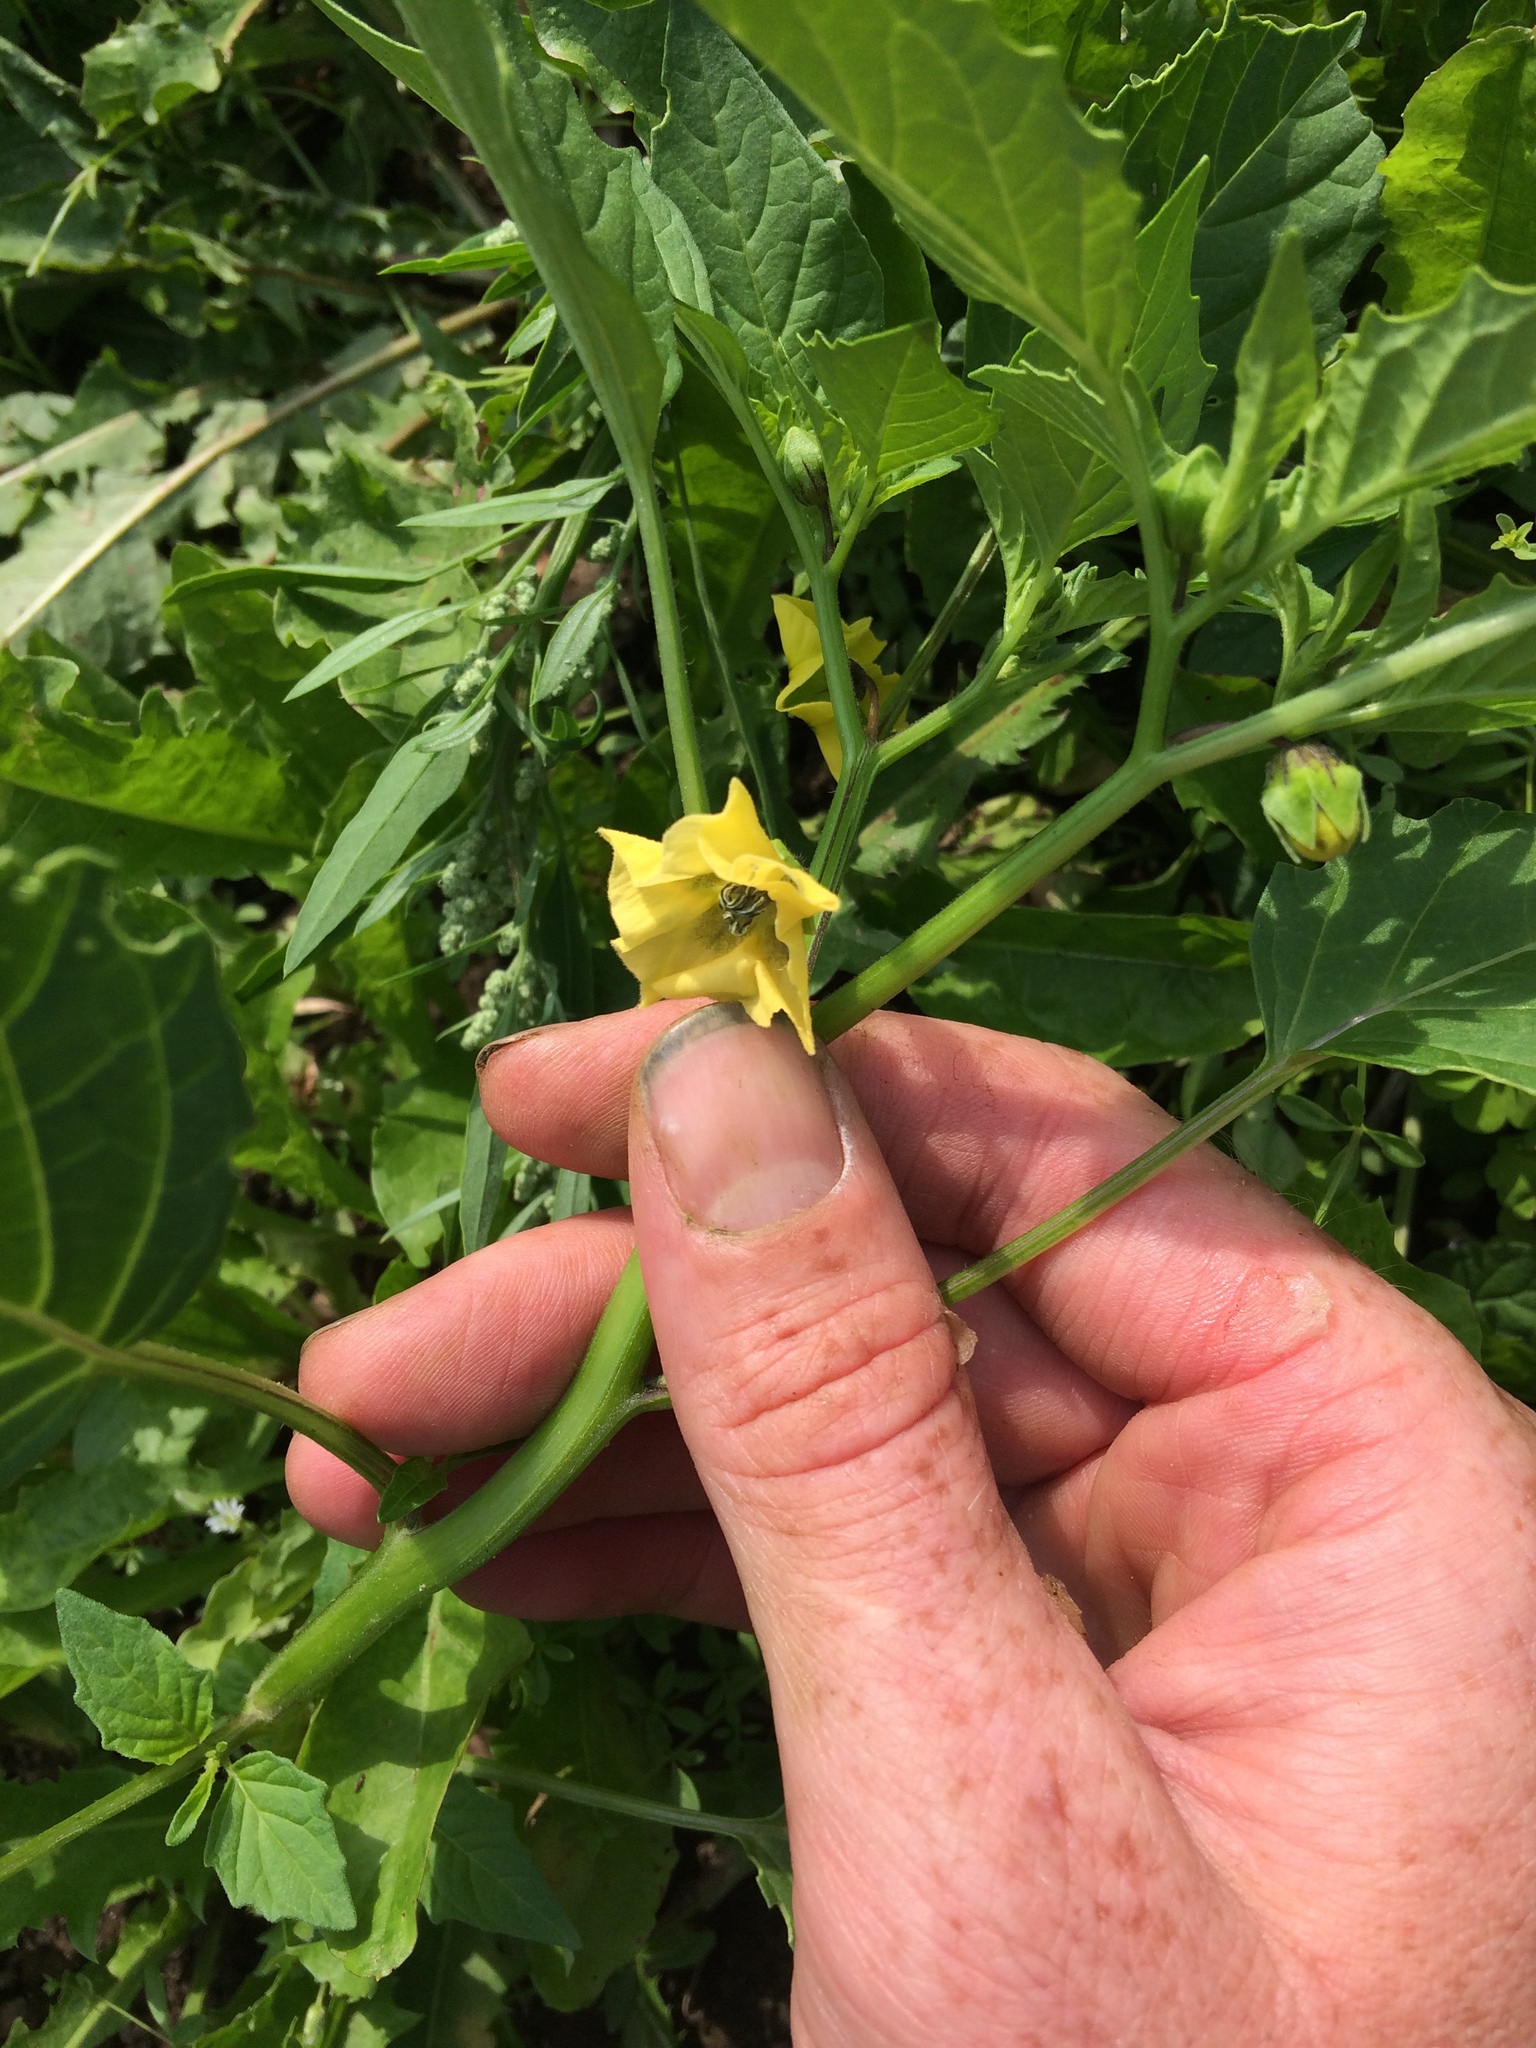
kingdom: Plantae
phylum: Tracheophyta
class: Magnoliopsida
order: Solanales
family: Solanaceae
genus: Physalis
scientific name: Physalis philadelphica
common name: Husk-tomato
